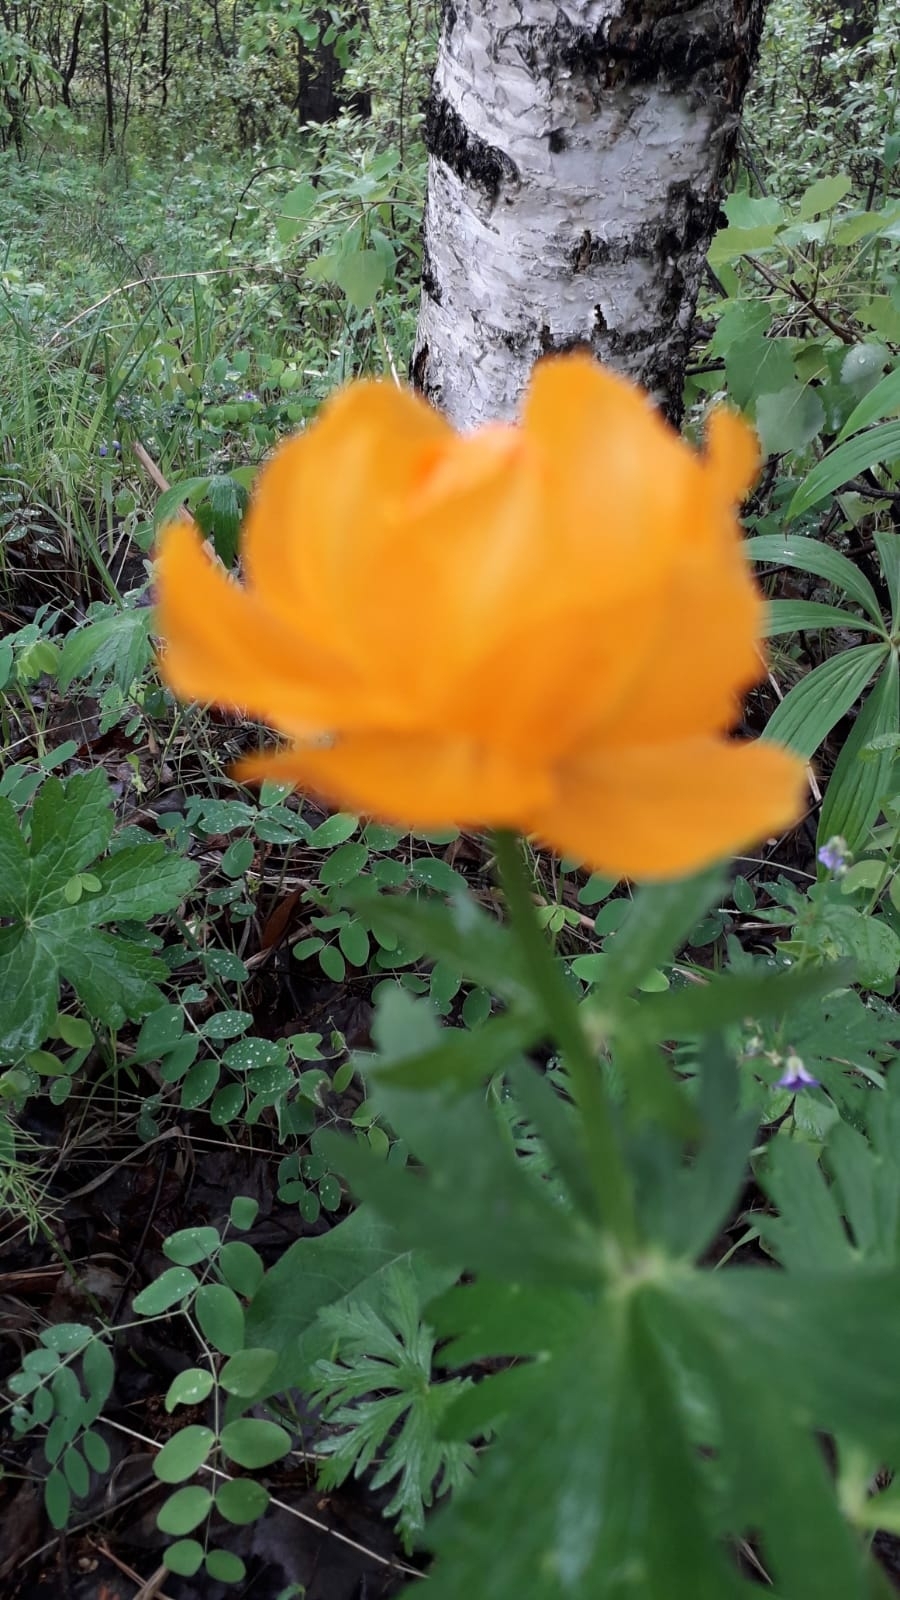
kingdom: Plantae
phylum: Tracheophyta
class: Magnoliopsida
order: Ranunculales
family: Ranunculaceae
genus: Trollius
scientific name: Trollius asiaticus
